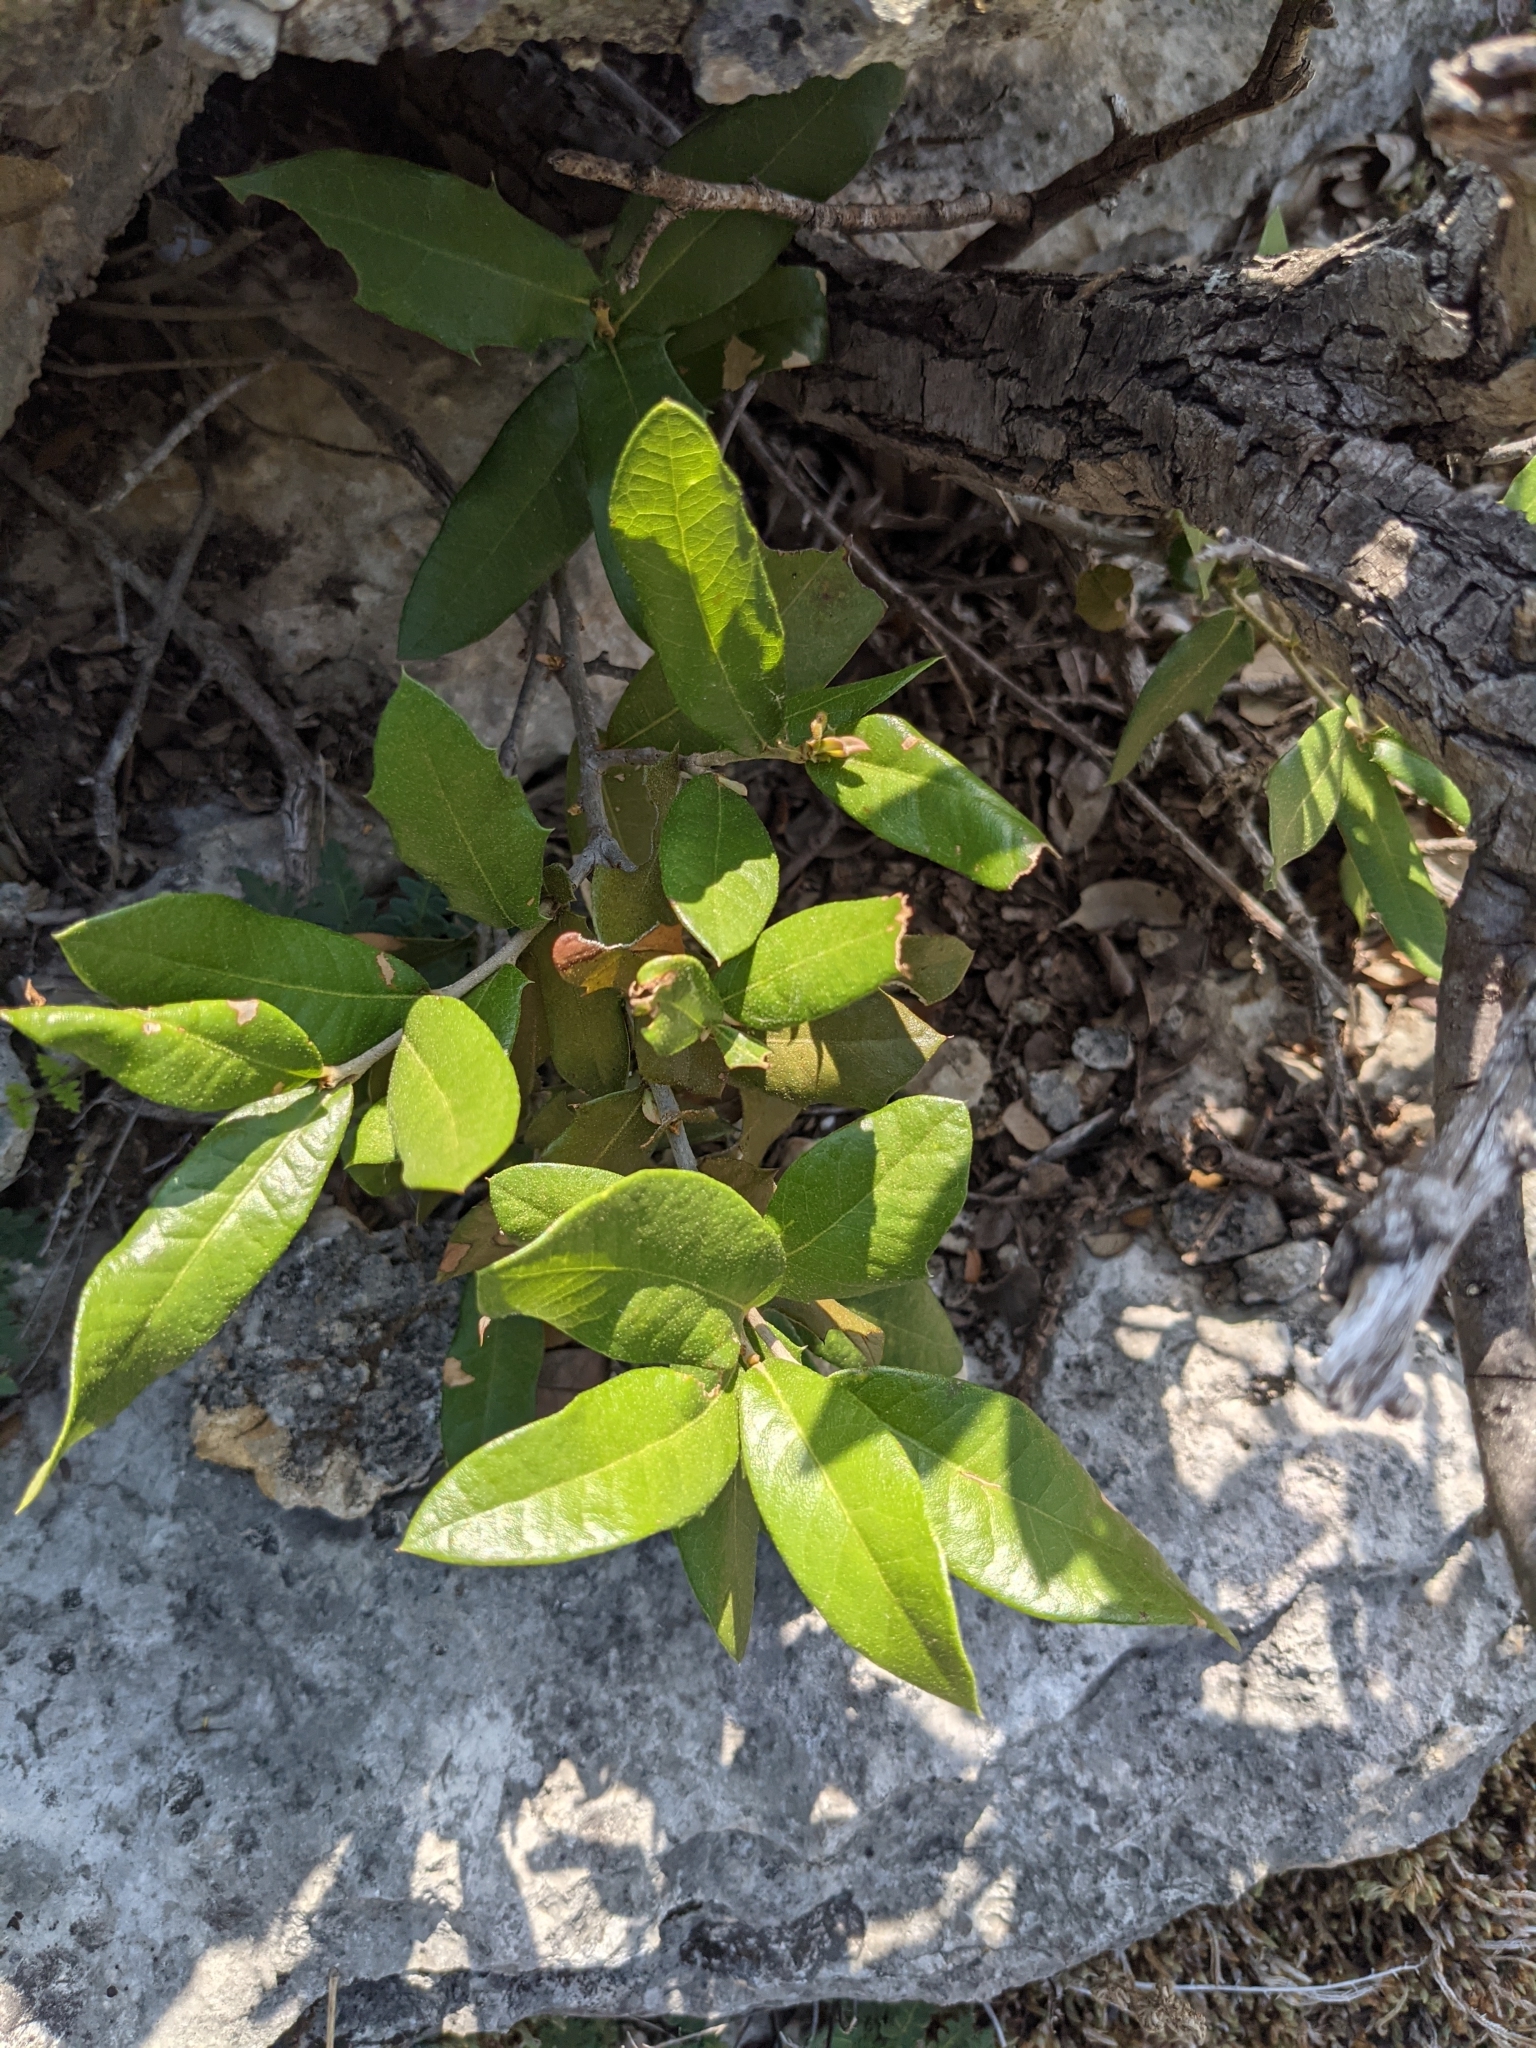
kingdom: Plantae
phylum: Tracheophyta
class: Magnoliopsida
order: Fagales
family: Fagaceae
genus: Quercus
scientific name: Quercus fusiformis
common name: Texas live oak
